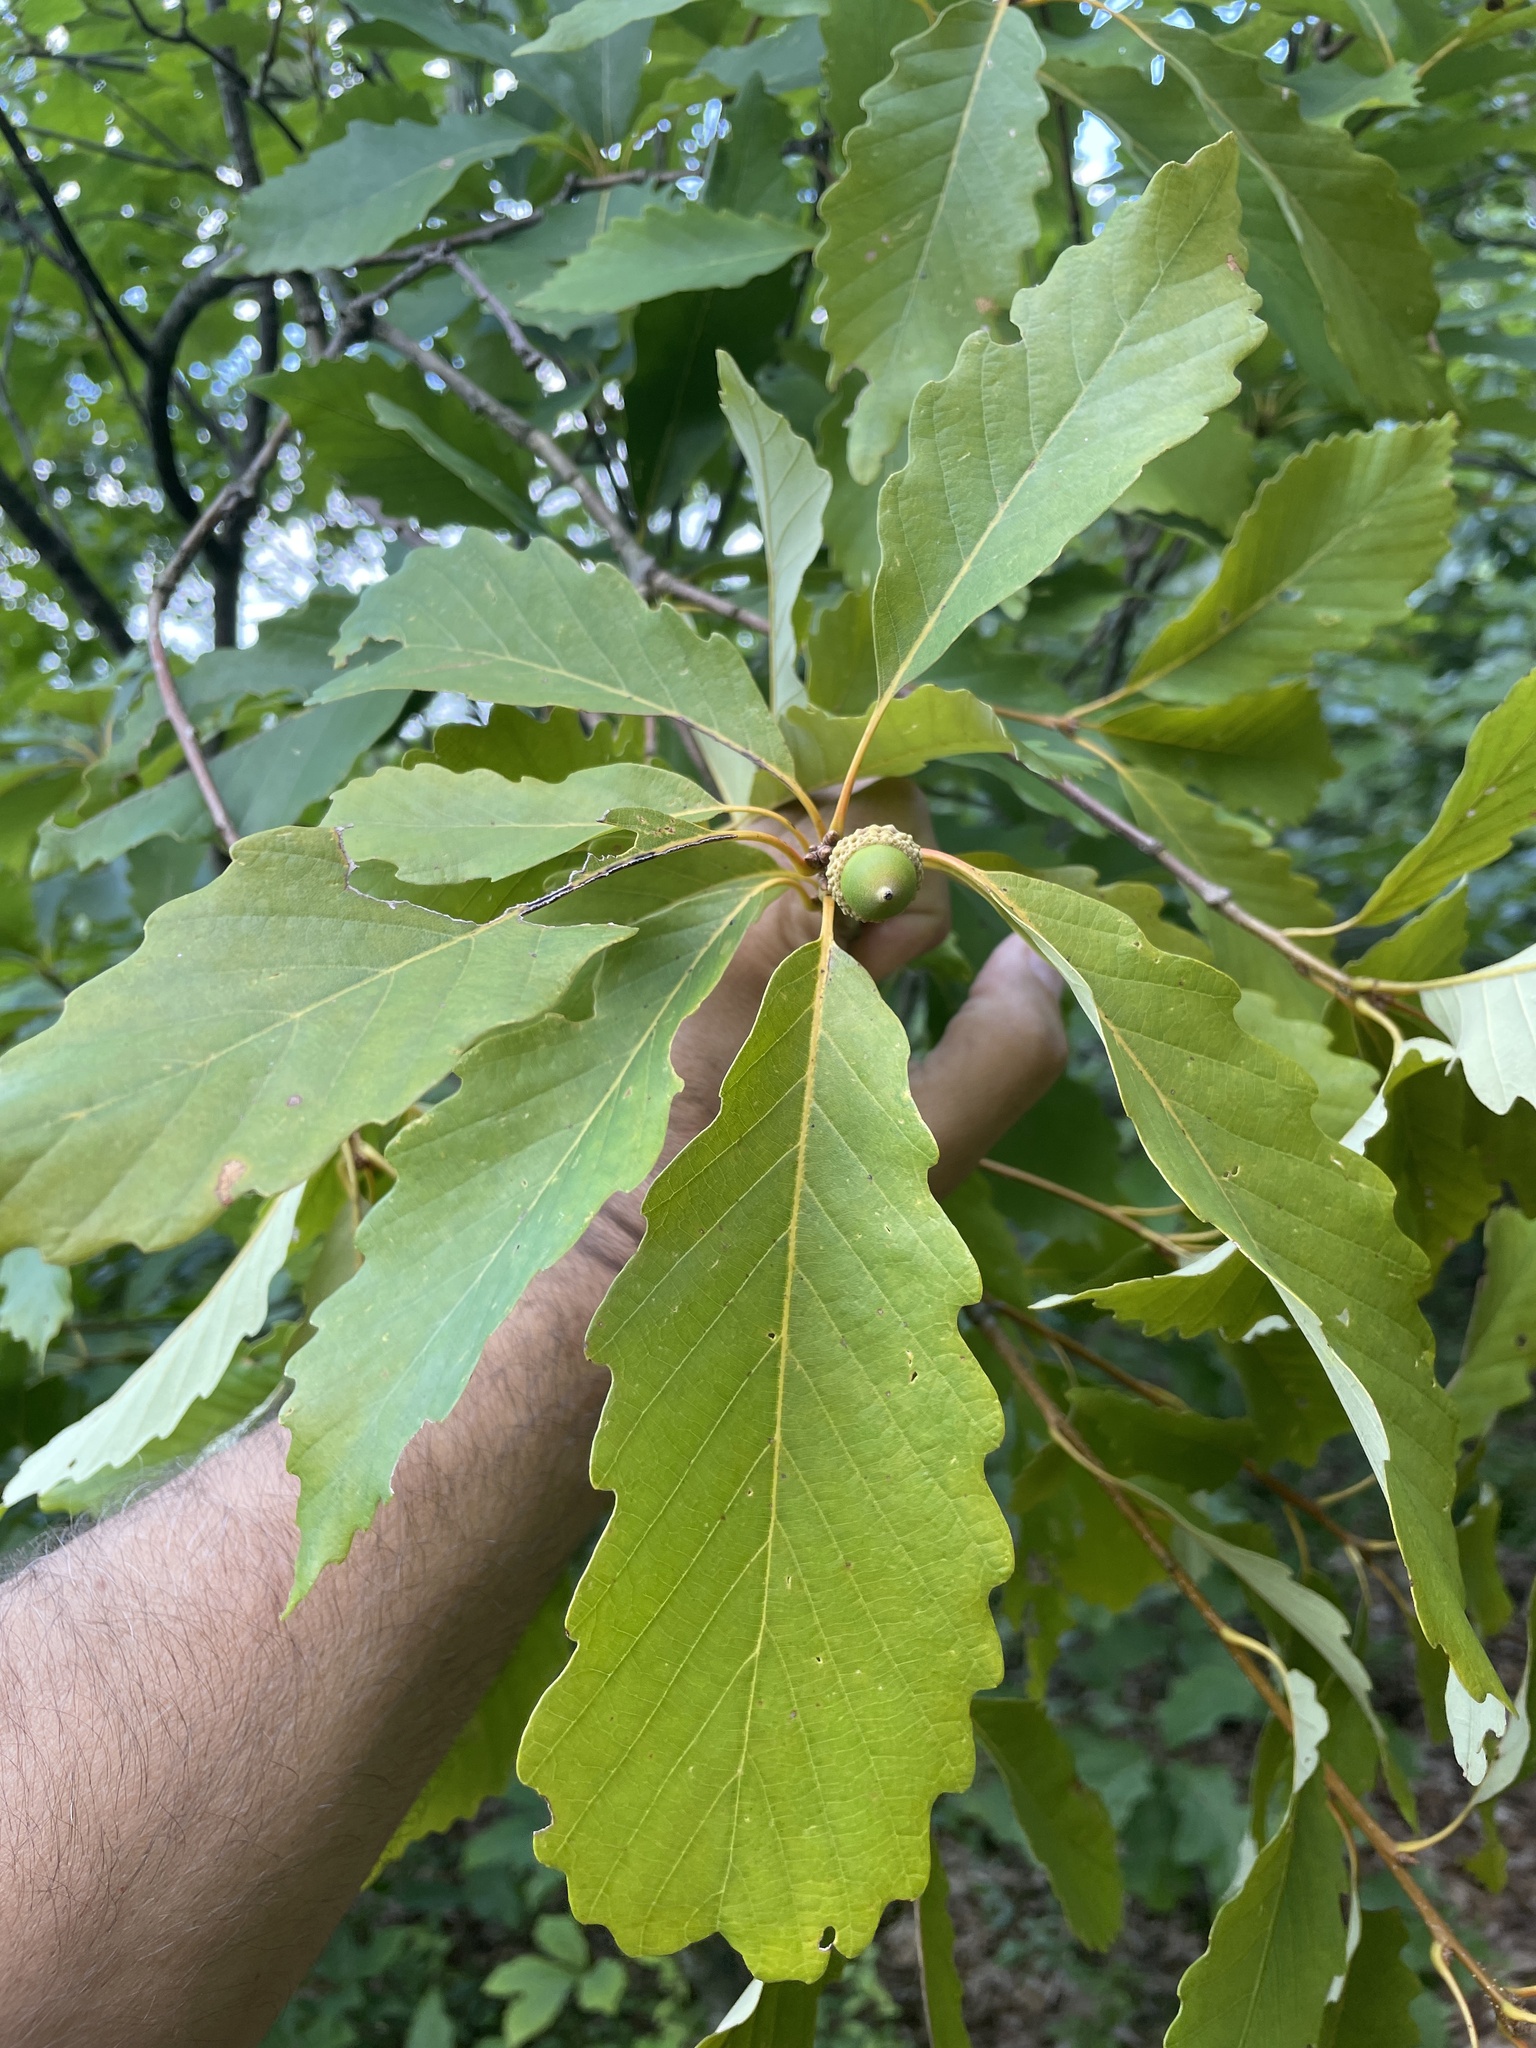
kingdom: Plantae
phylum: Tracheophyta
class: Magnoliopsida
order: Fagales
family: Fagaceae
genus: Quercus
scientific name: Quercus montana
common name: Chestnut oak
